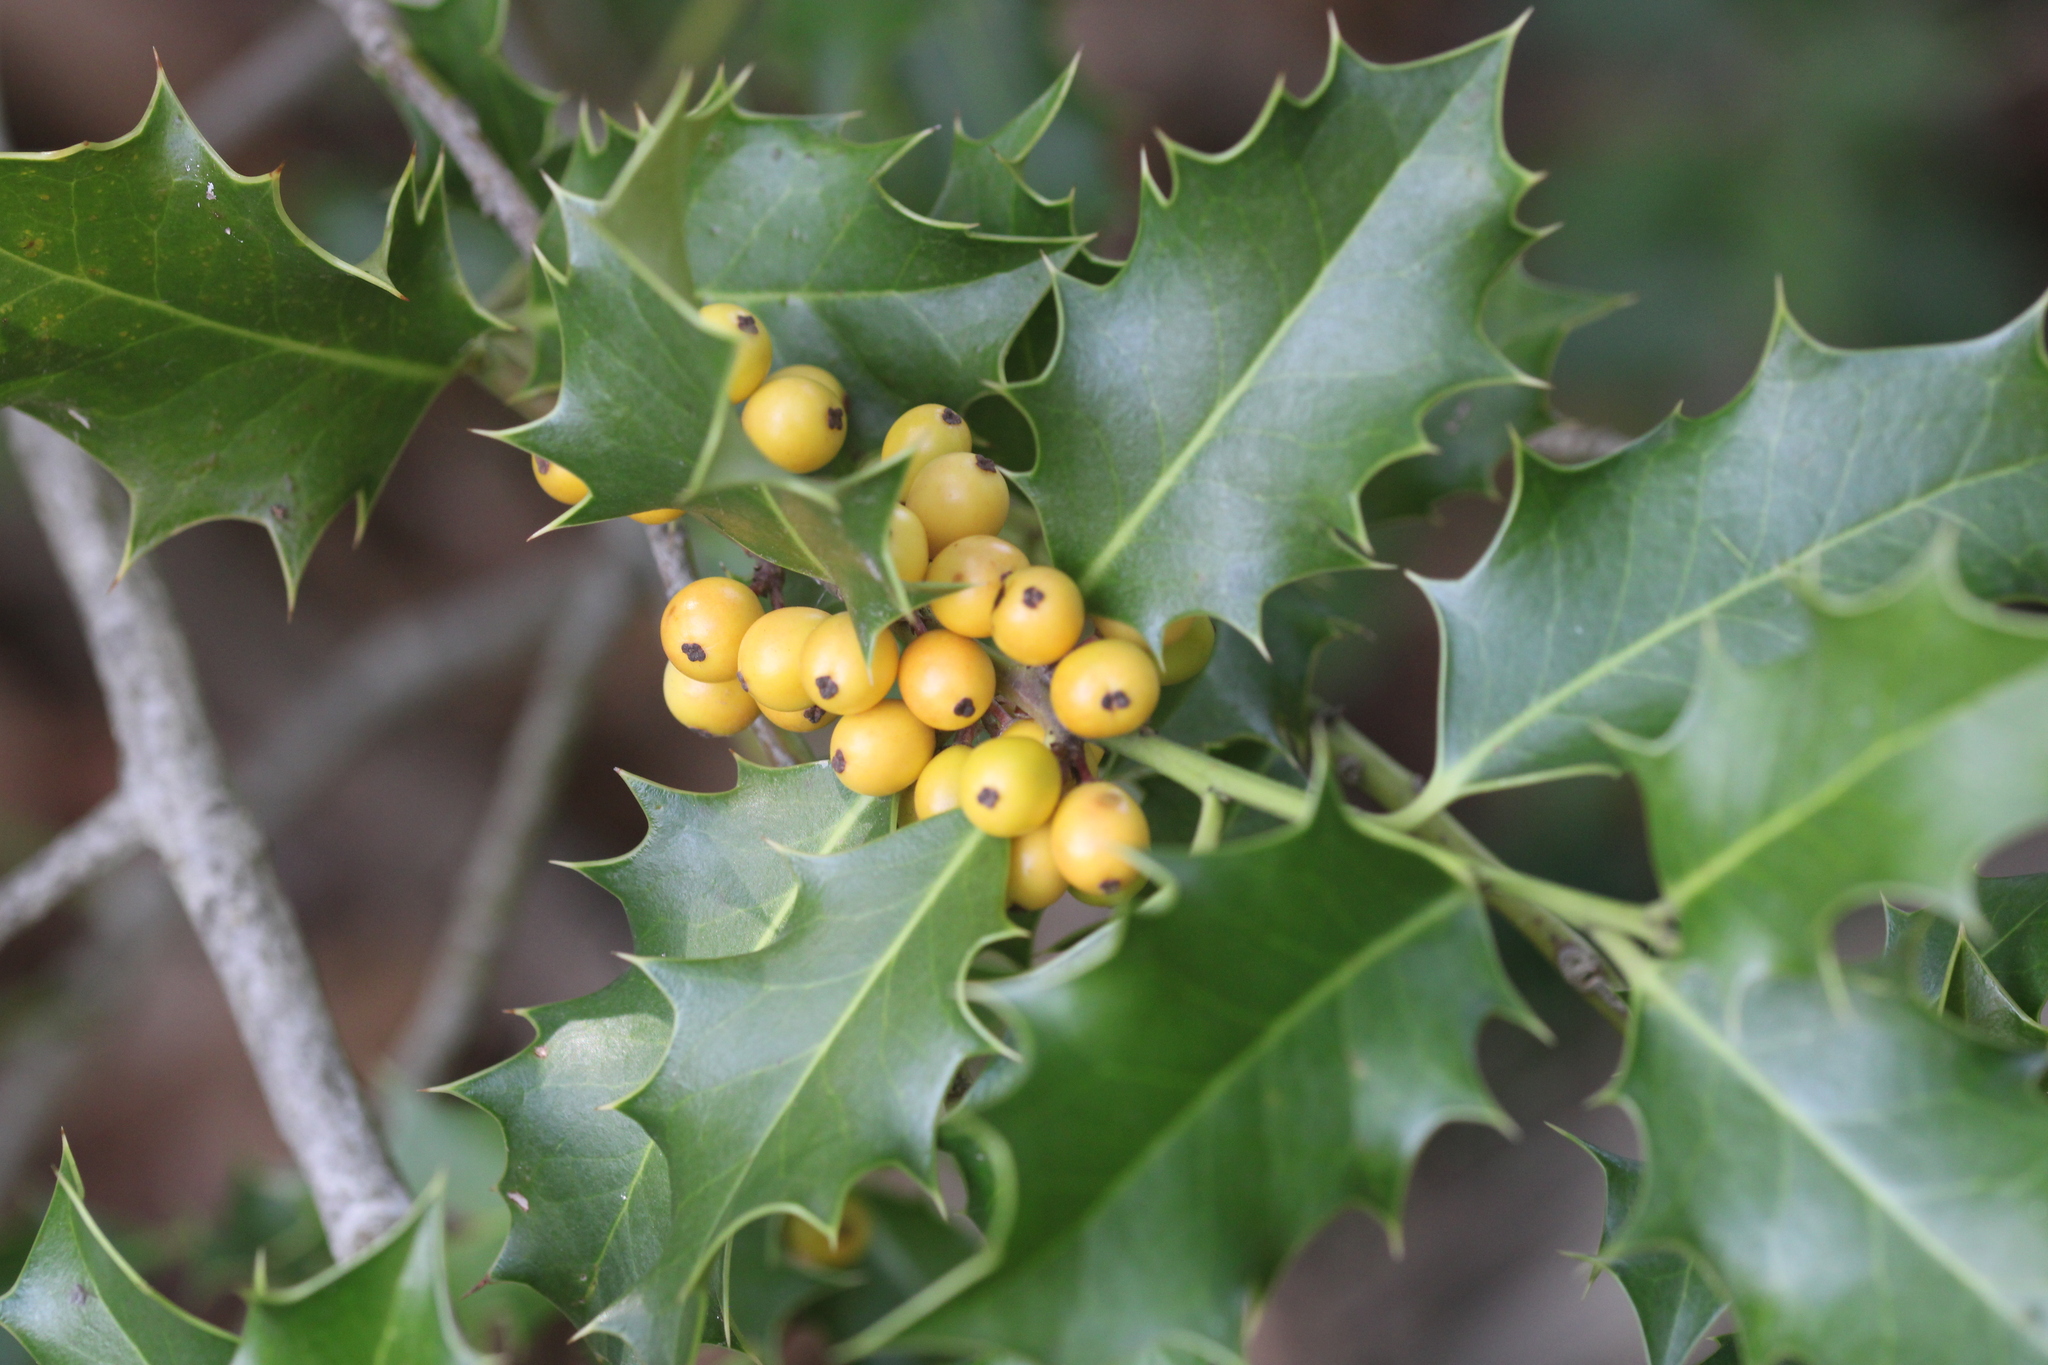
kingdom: Plantae
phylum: Tracheophyta
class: Magnoliopsida
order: Aquifoliales
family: Aquifoliaceae
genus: Ilex
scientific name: Ilex aquifolium
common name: English holly
